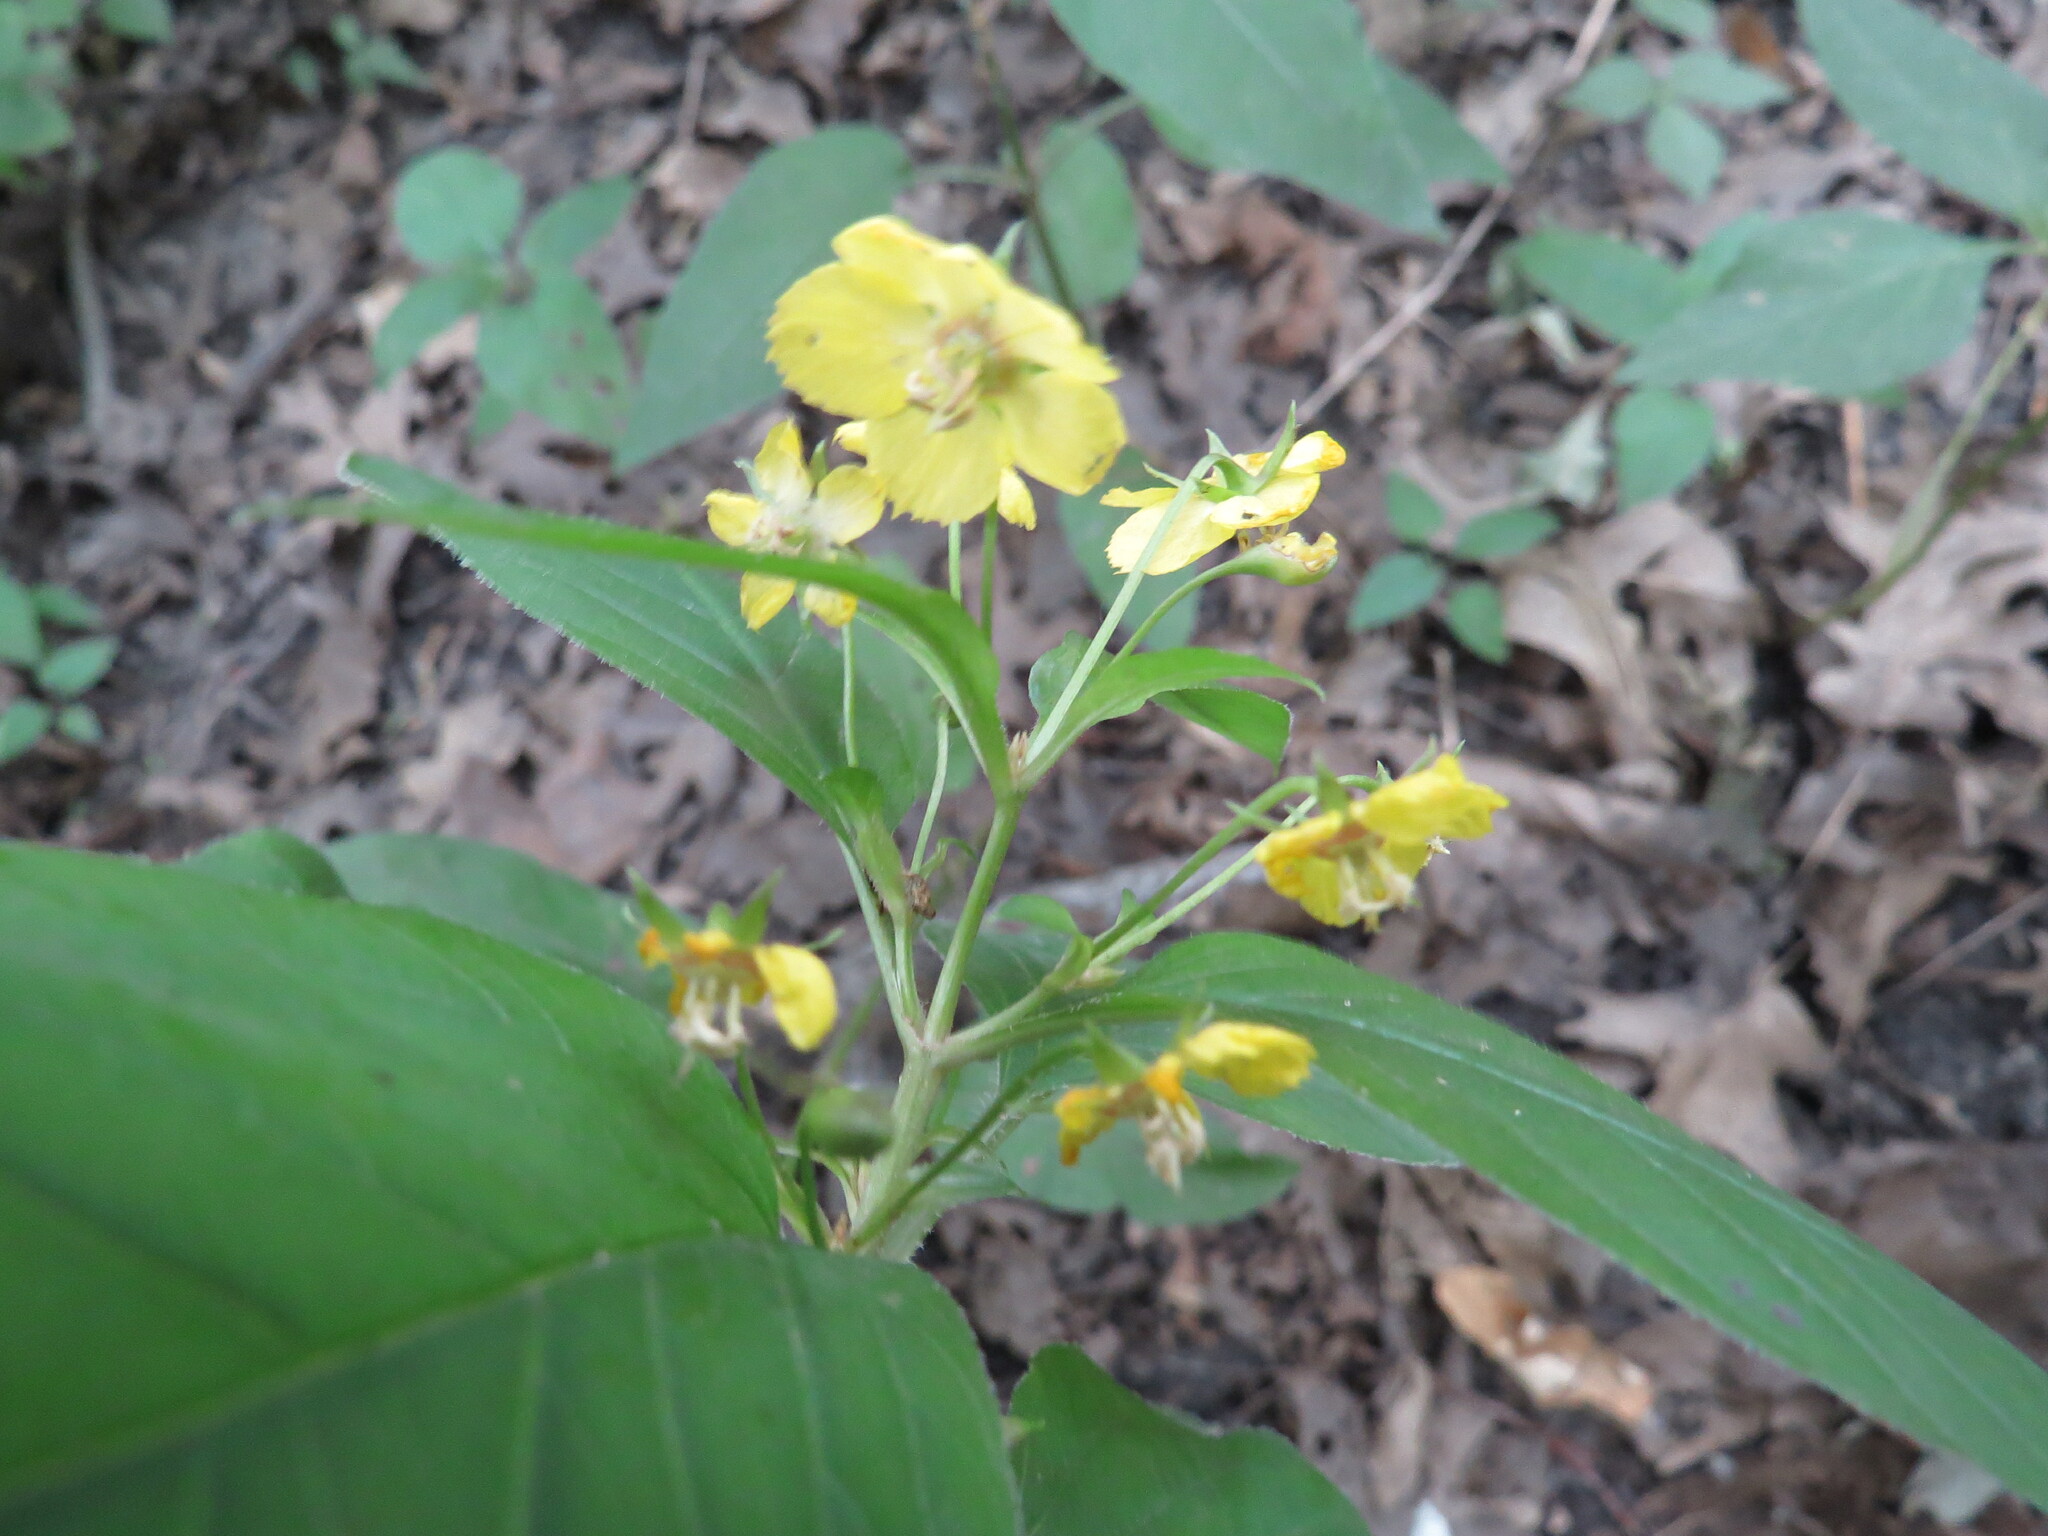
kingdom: Plantae
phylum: Tracheophyta
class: Magnoliopsida
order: Ericales
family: Primulaceae
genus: Lysimachia
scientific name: Lysimachia ciliata
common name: Fringed loosestrife
